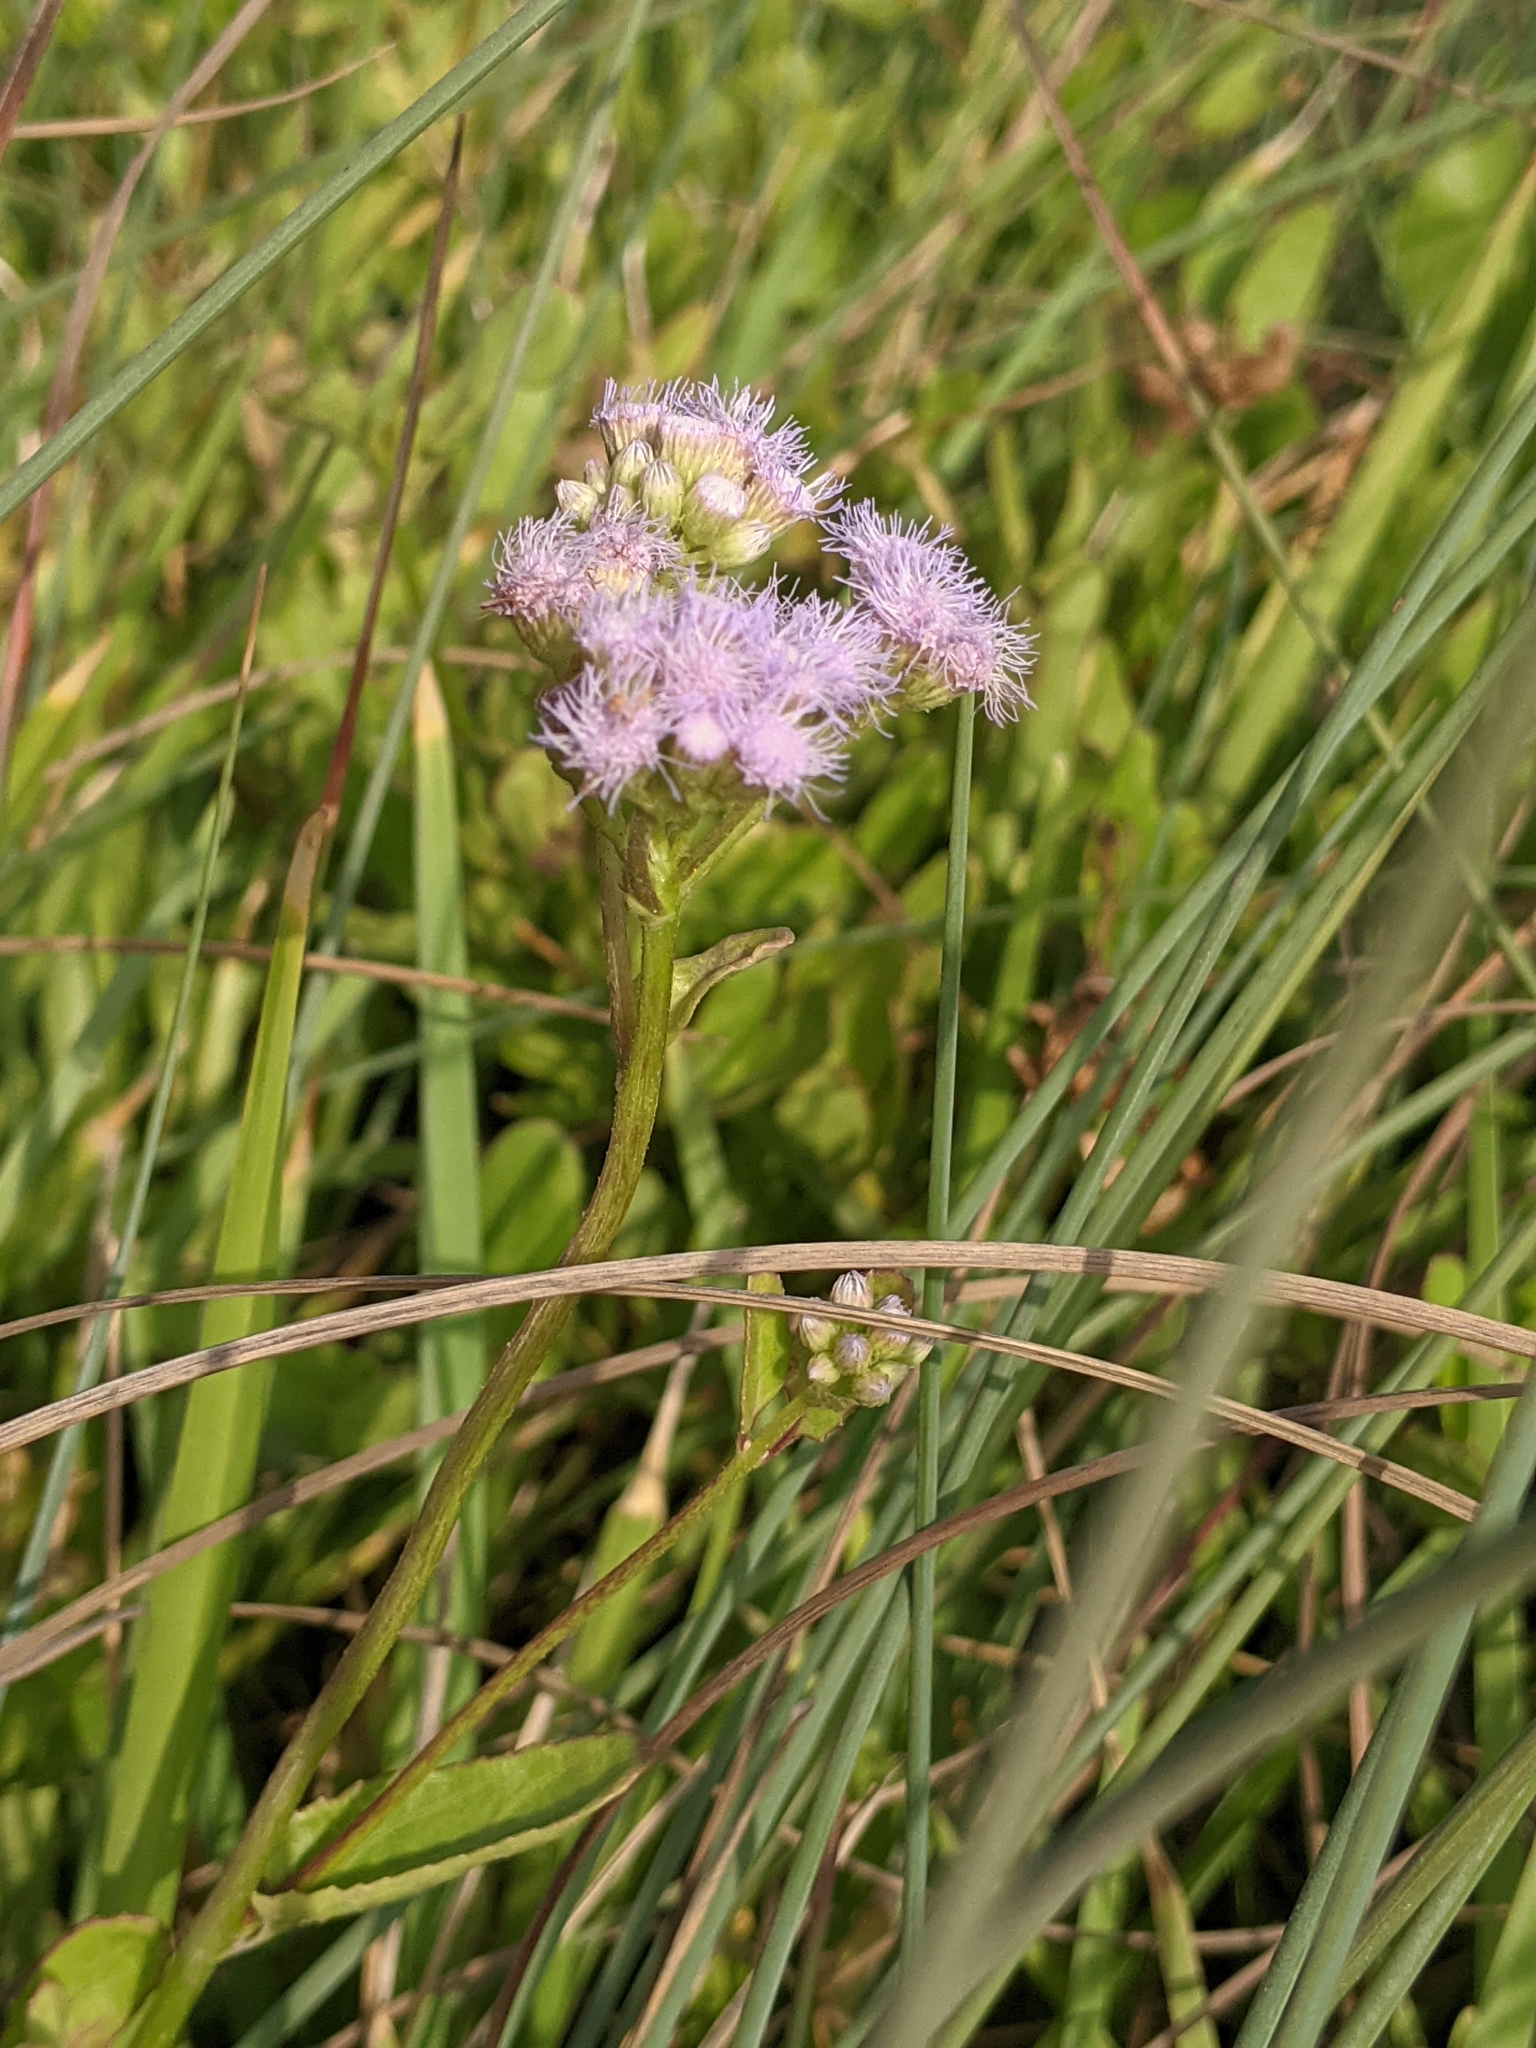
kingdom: Plantae
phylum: Tracheophyta
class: Magnoliopsida
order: Asterales
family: Asteraceae
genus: Conoclinium
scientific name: Conoclinium betonicifolium
